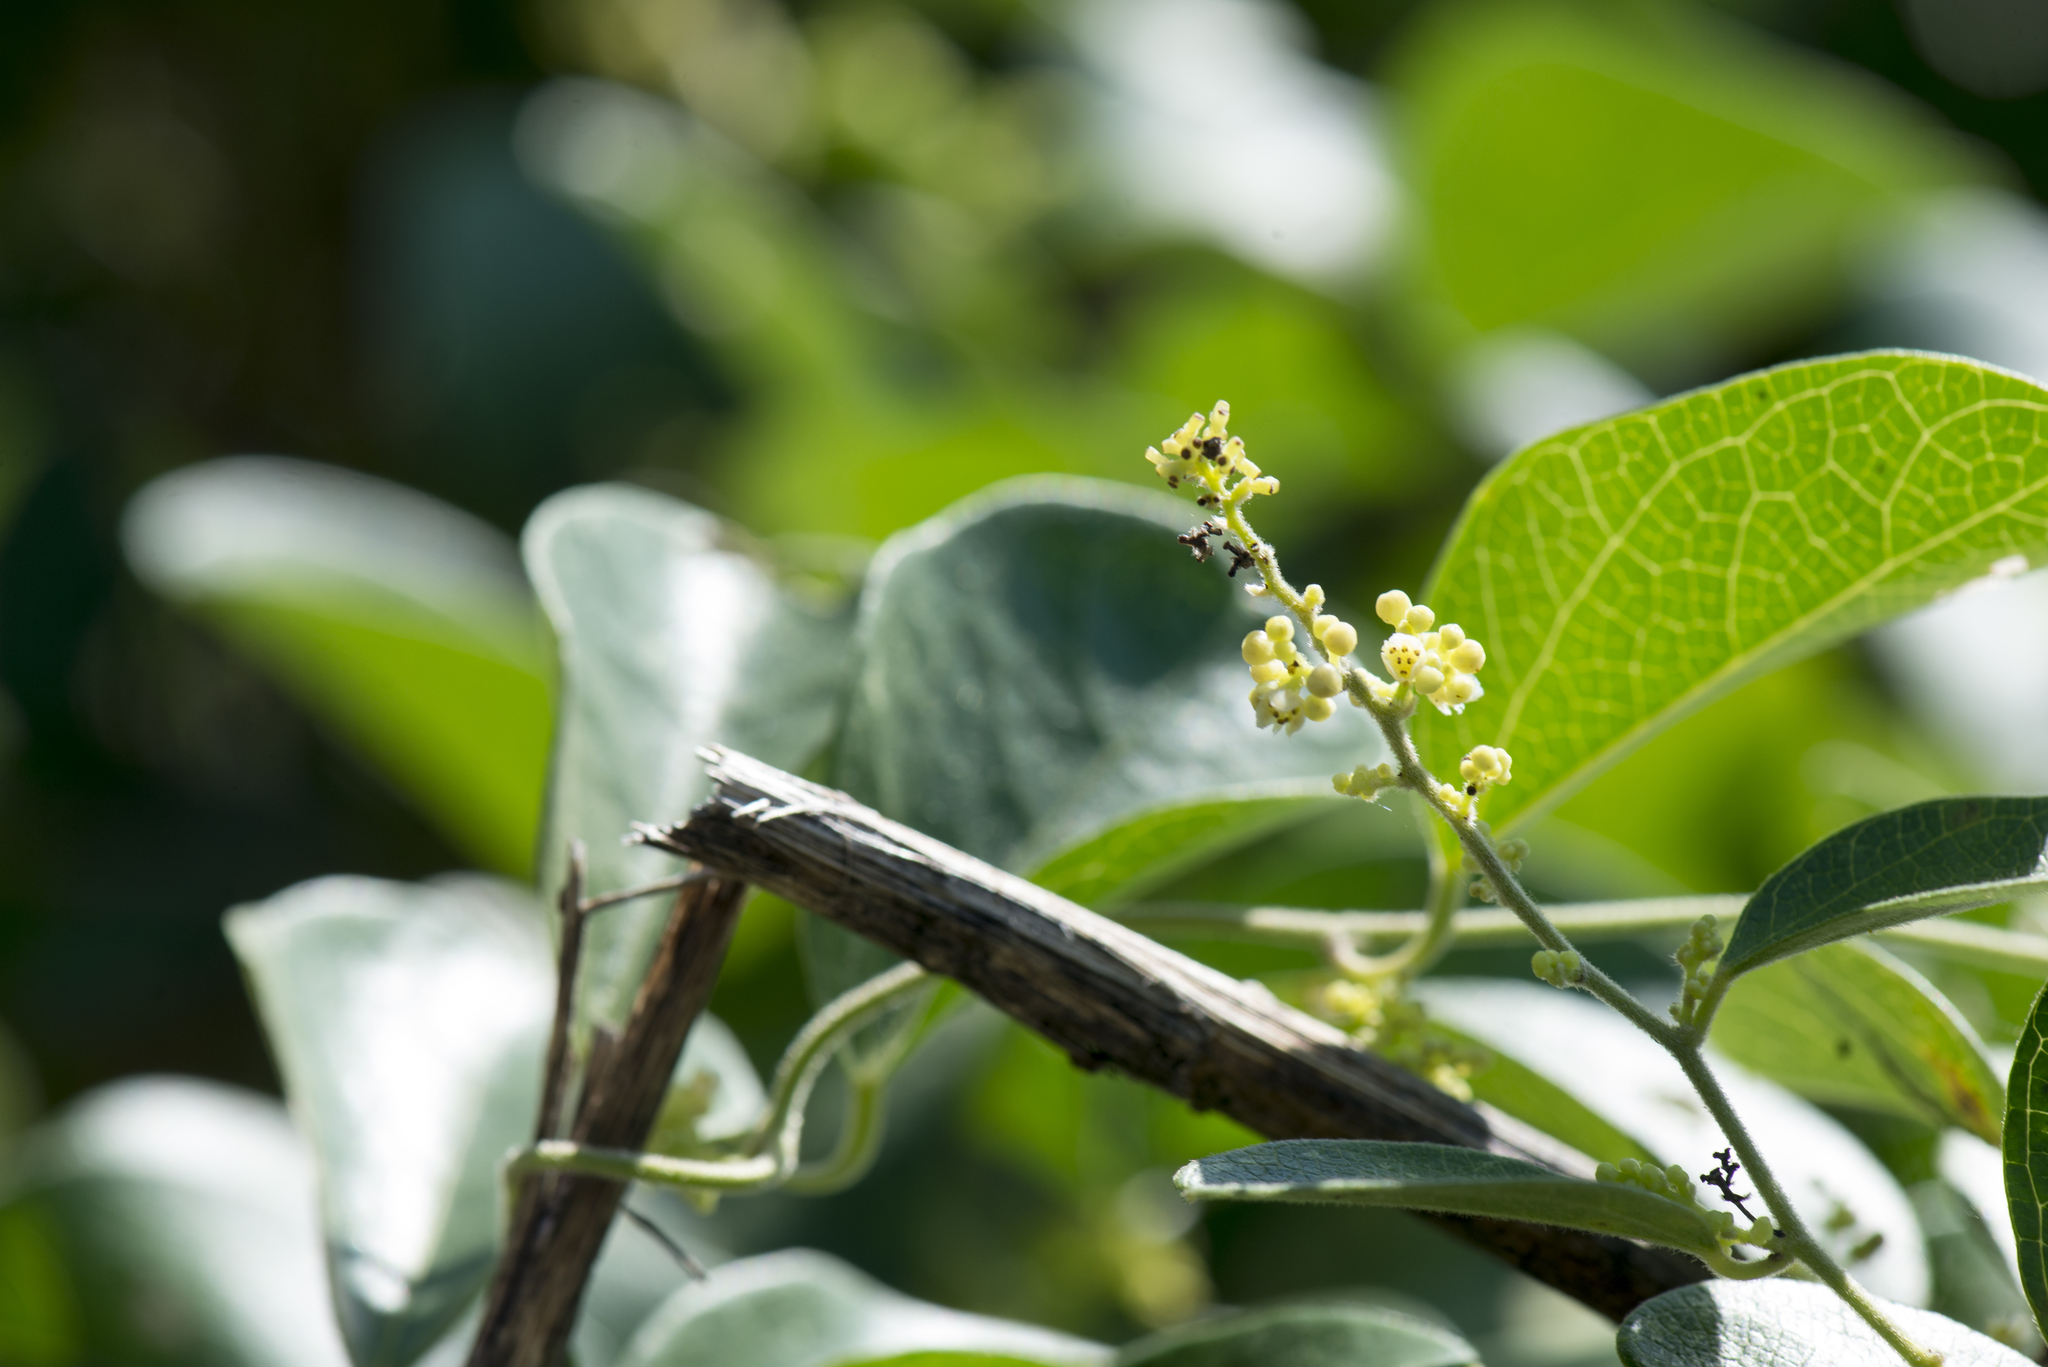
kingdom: Plantae
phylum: Tracheophyta
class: Magnoliopsida
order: Ranunculales
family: Menispermaceae
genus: Cocculus
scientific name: Cocculus orbiculatus
